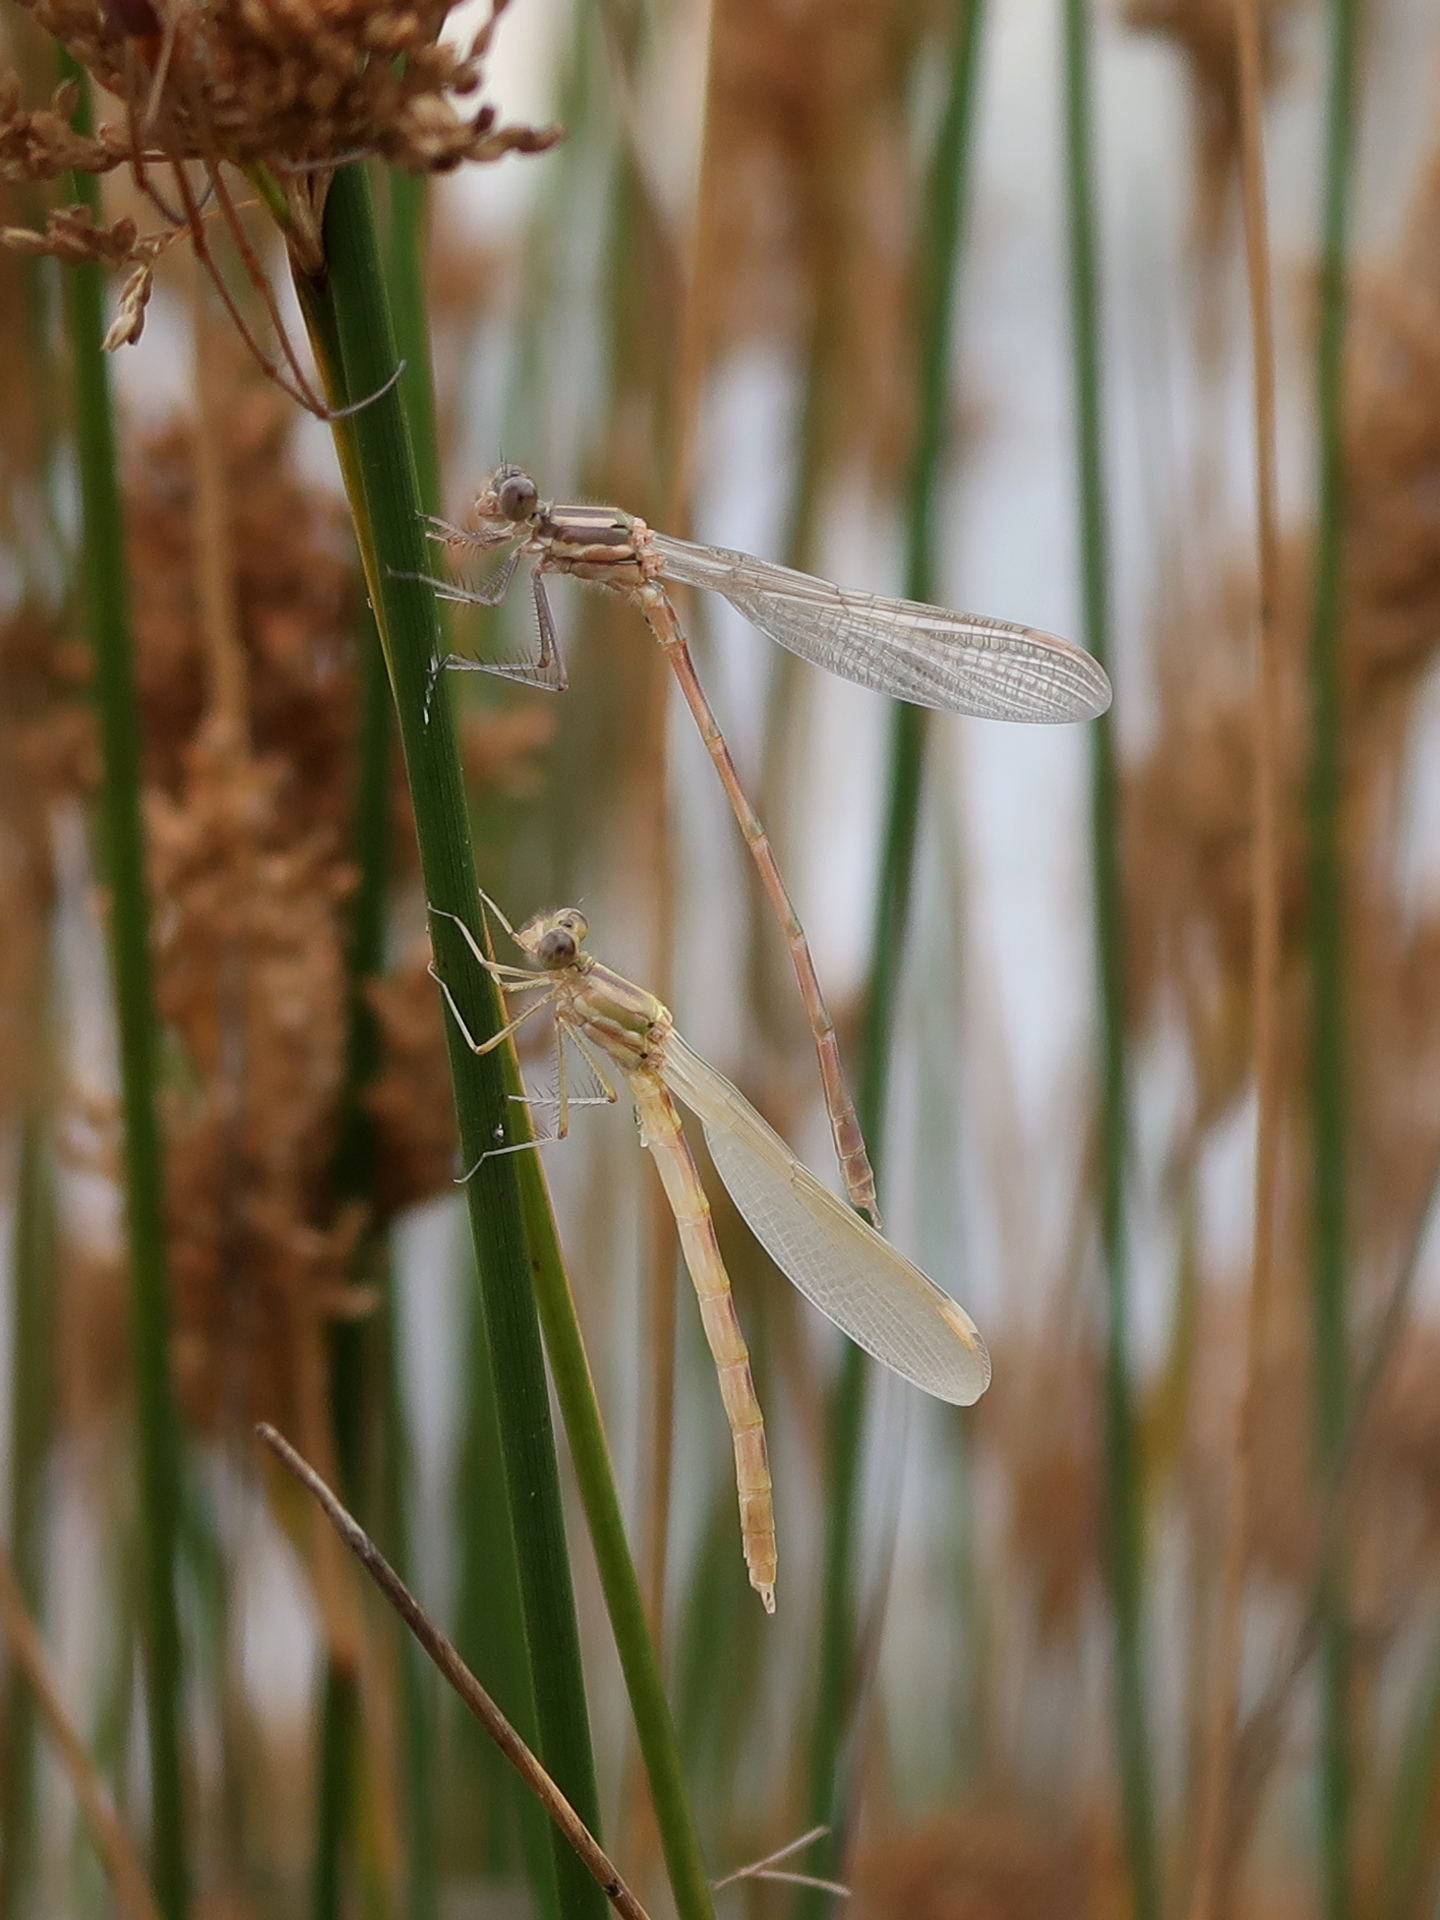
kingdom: Animalia
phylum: Arthropoda
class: Insecta
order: Odonata
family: Lestidae
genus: Austrolestes
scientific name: Austrolestes annulosus
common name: Blue ringtail
